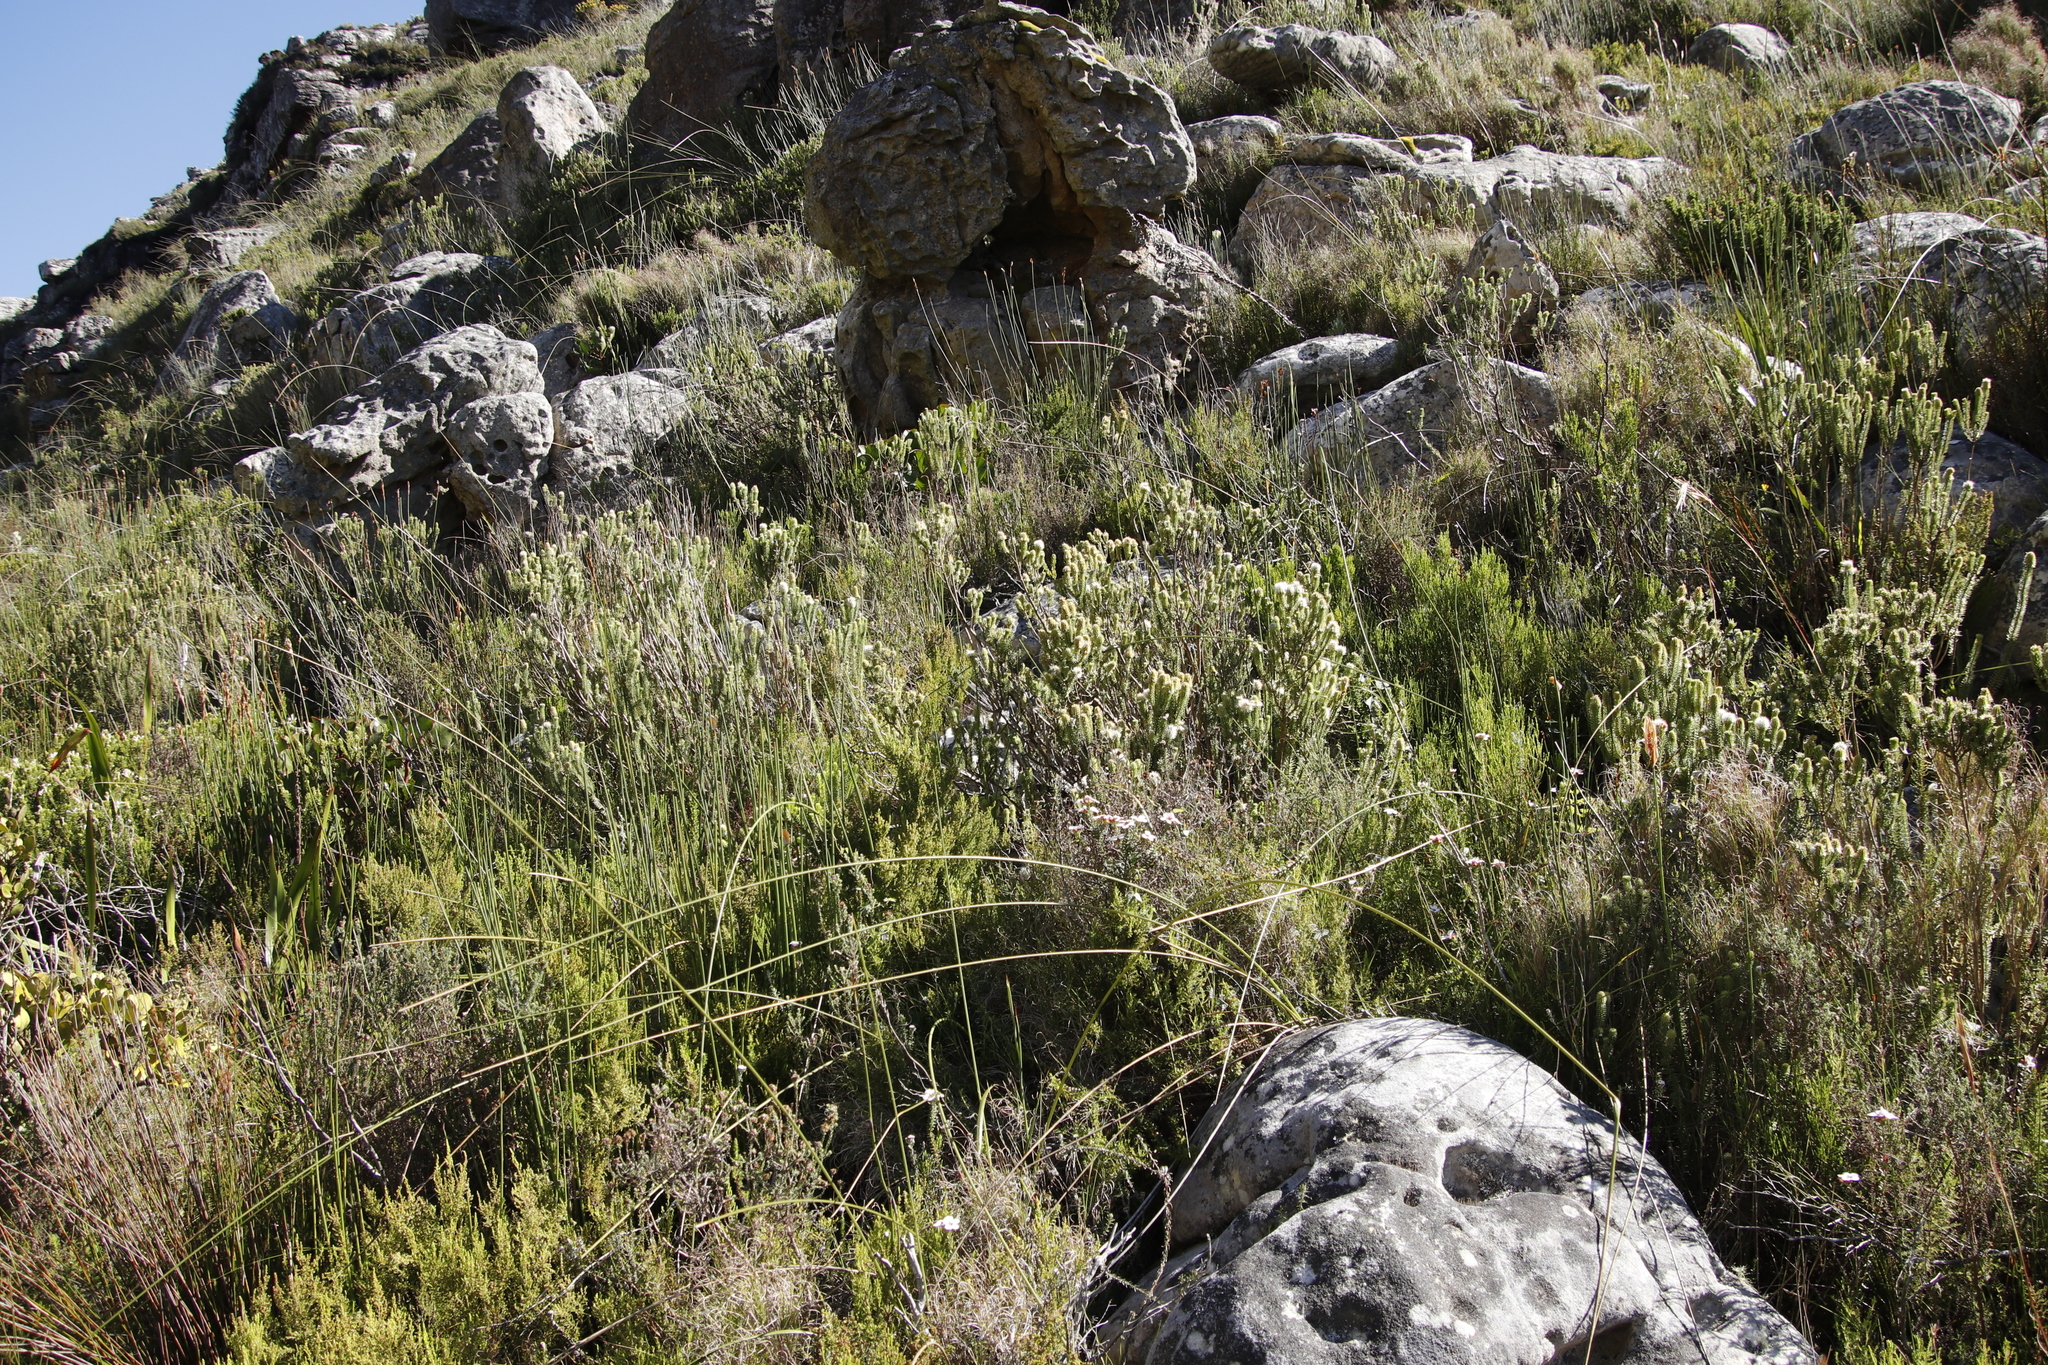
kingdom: Plantae
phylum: Tracheophyta
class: Magnoliopsida
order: Lamiales
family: Stilbaceae
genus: Stilbe
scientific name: Stilbe vestita
